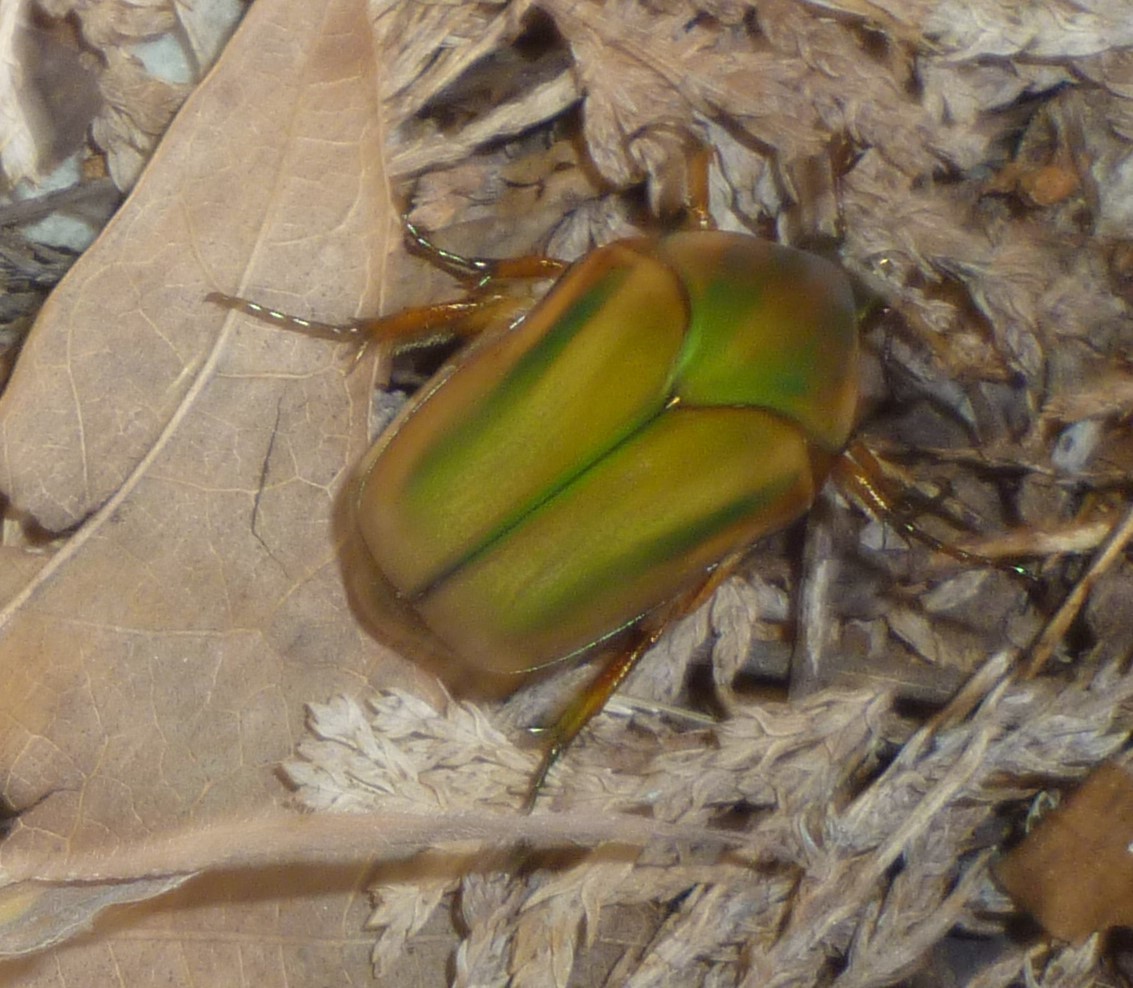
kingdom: Animalia
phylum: Arthropoda
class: Insecta
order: Coleoptera
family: Scarabaeidae
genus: Cotinis
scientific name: Cotinis nitida
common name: Common green june beetle
